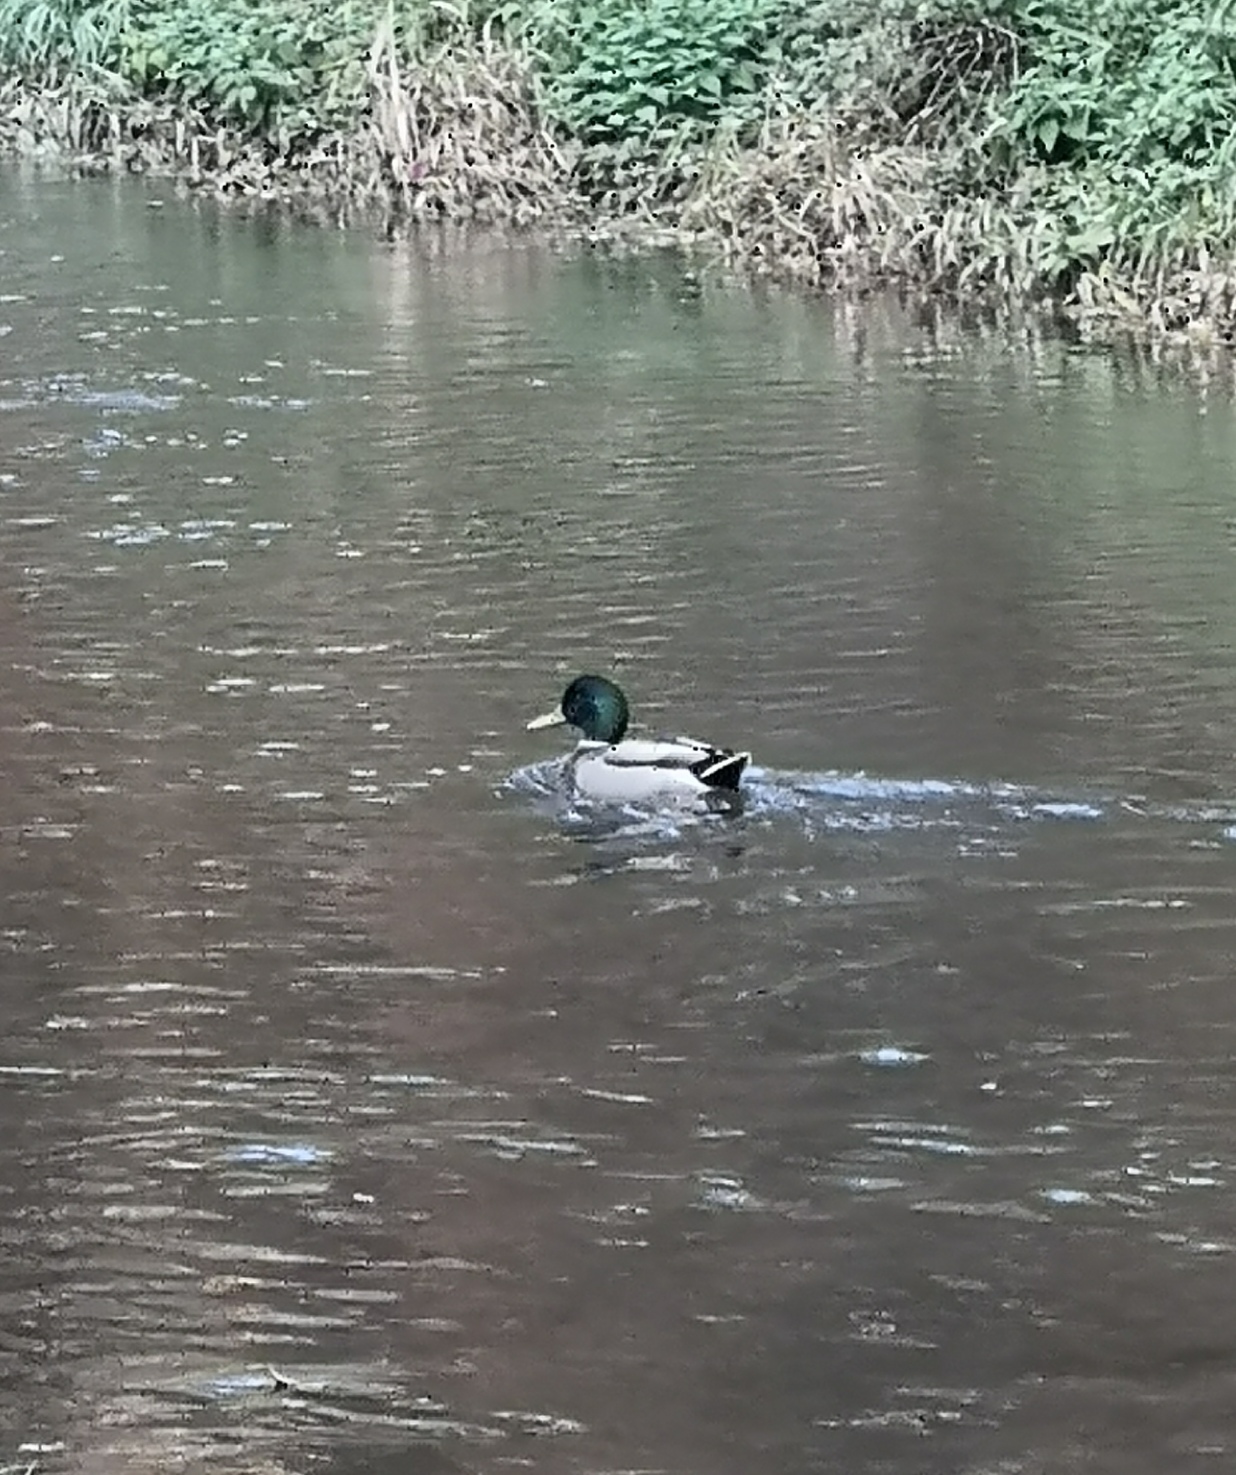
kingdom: Animalia
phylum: Chordata
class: Aves
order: Anseriformes
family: Anatidae
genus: Anas
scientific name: Anas platyrhynchos
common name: Mallard
